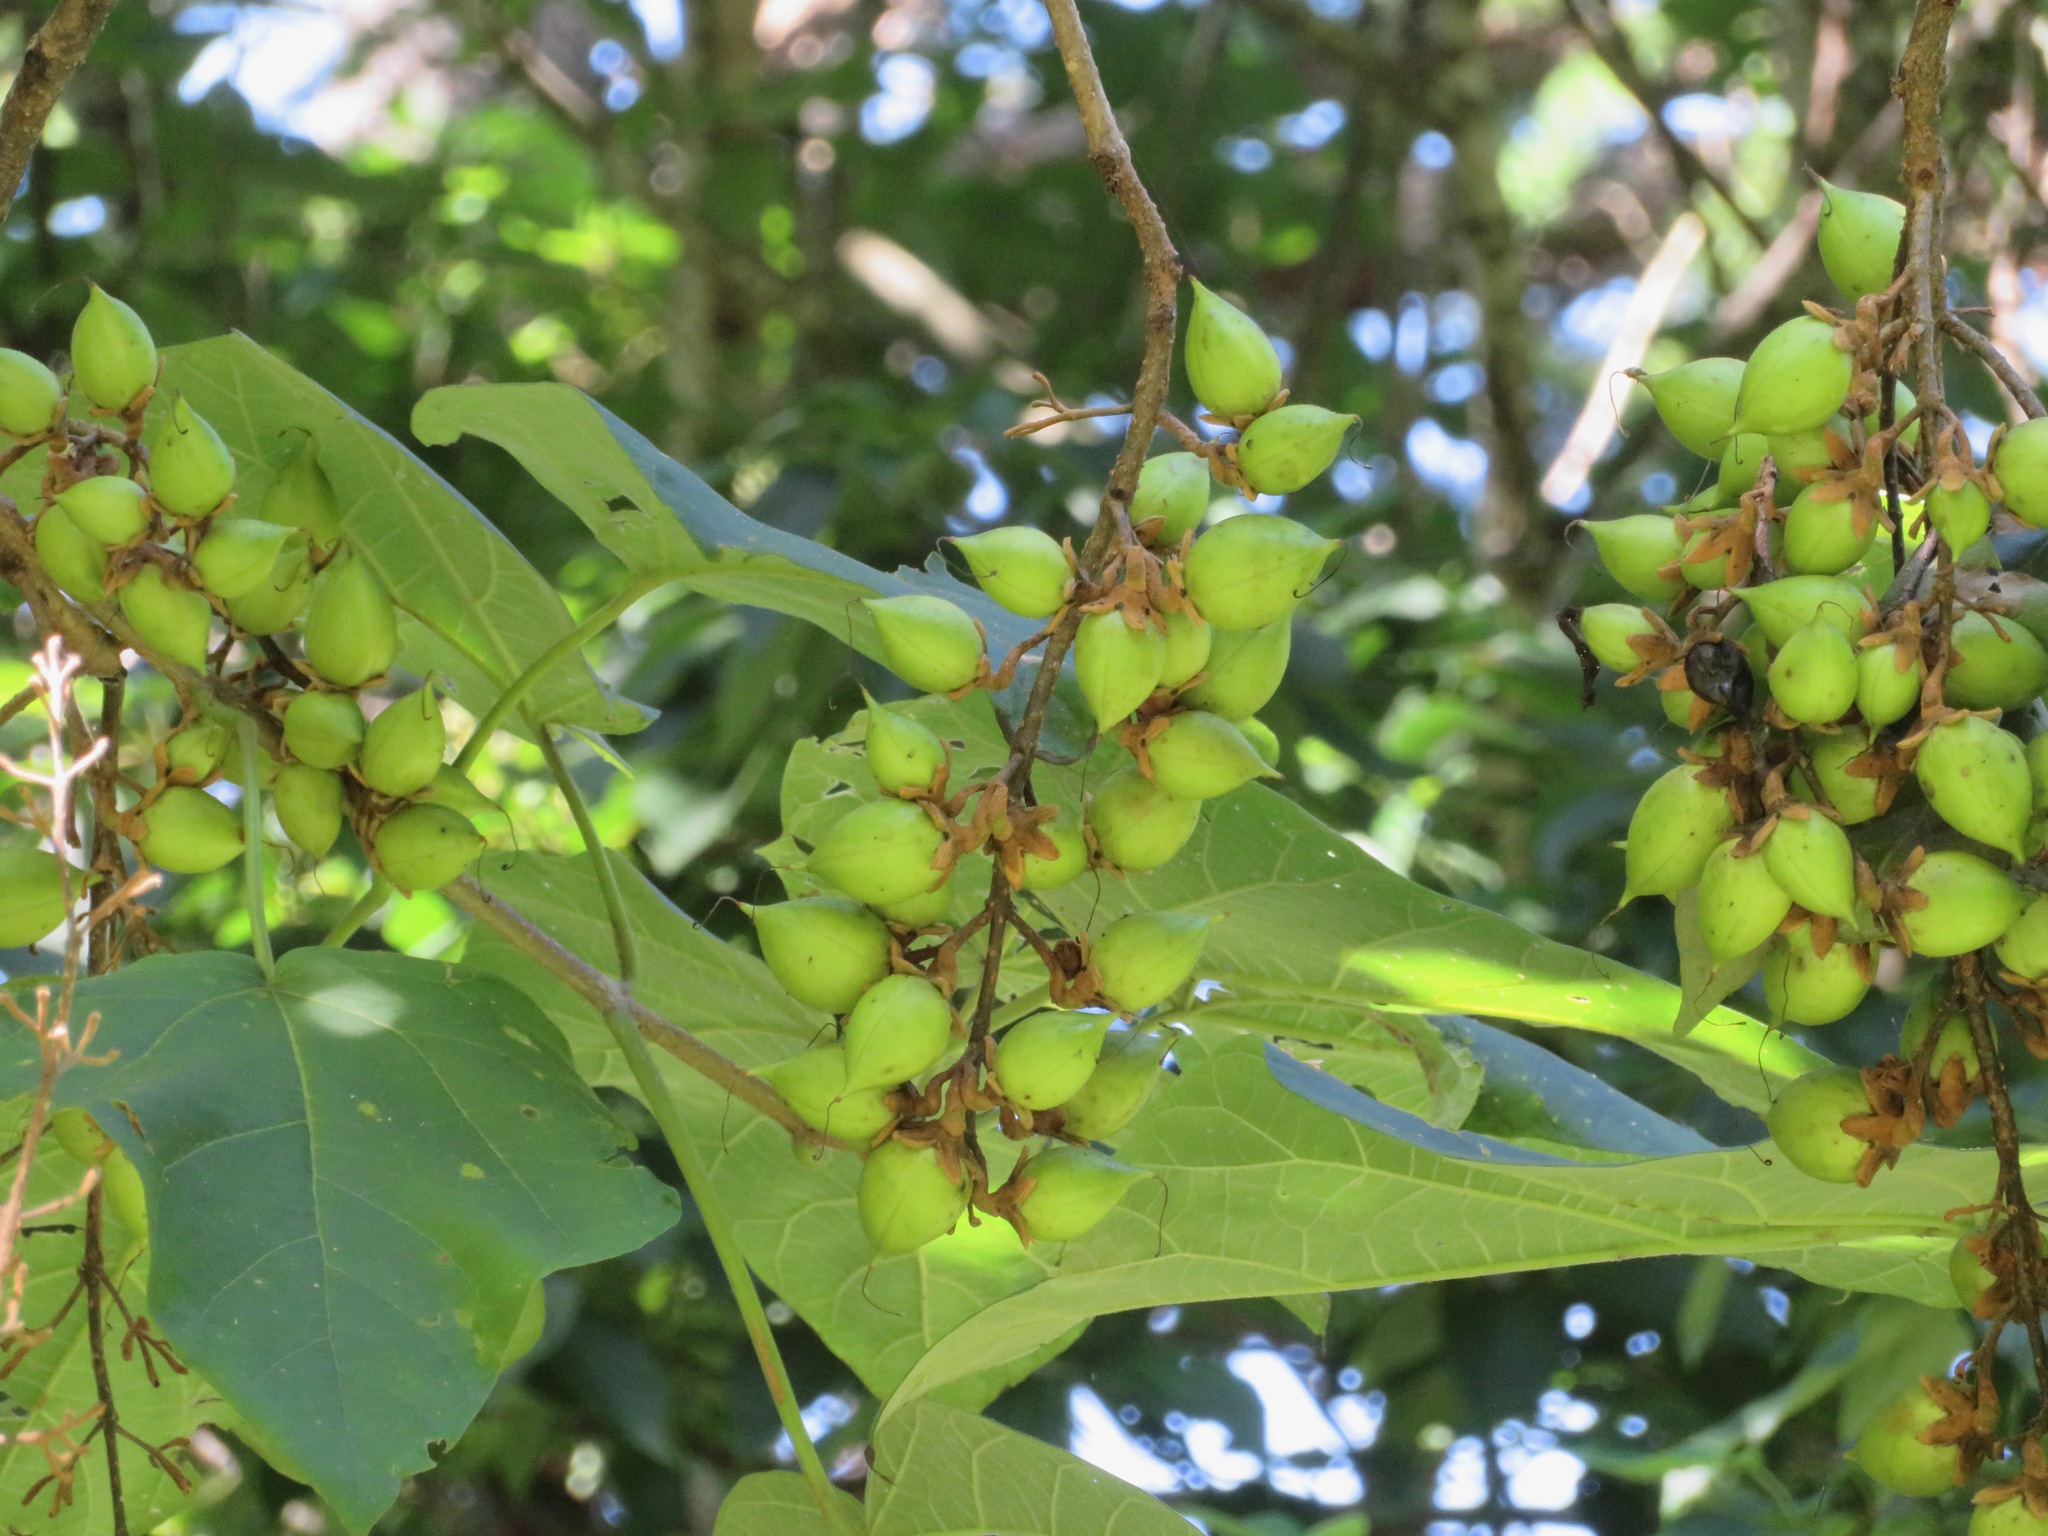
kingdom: Plantae
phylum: Tracheophyta
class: Magnoliopsida
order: Lamiales
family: Paulowniaceae
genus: Paulownia
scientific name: Paulownia tomentosa
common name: Foxglove-tree
